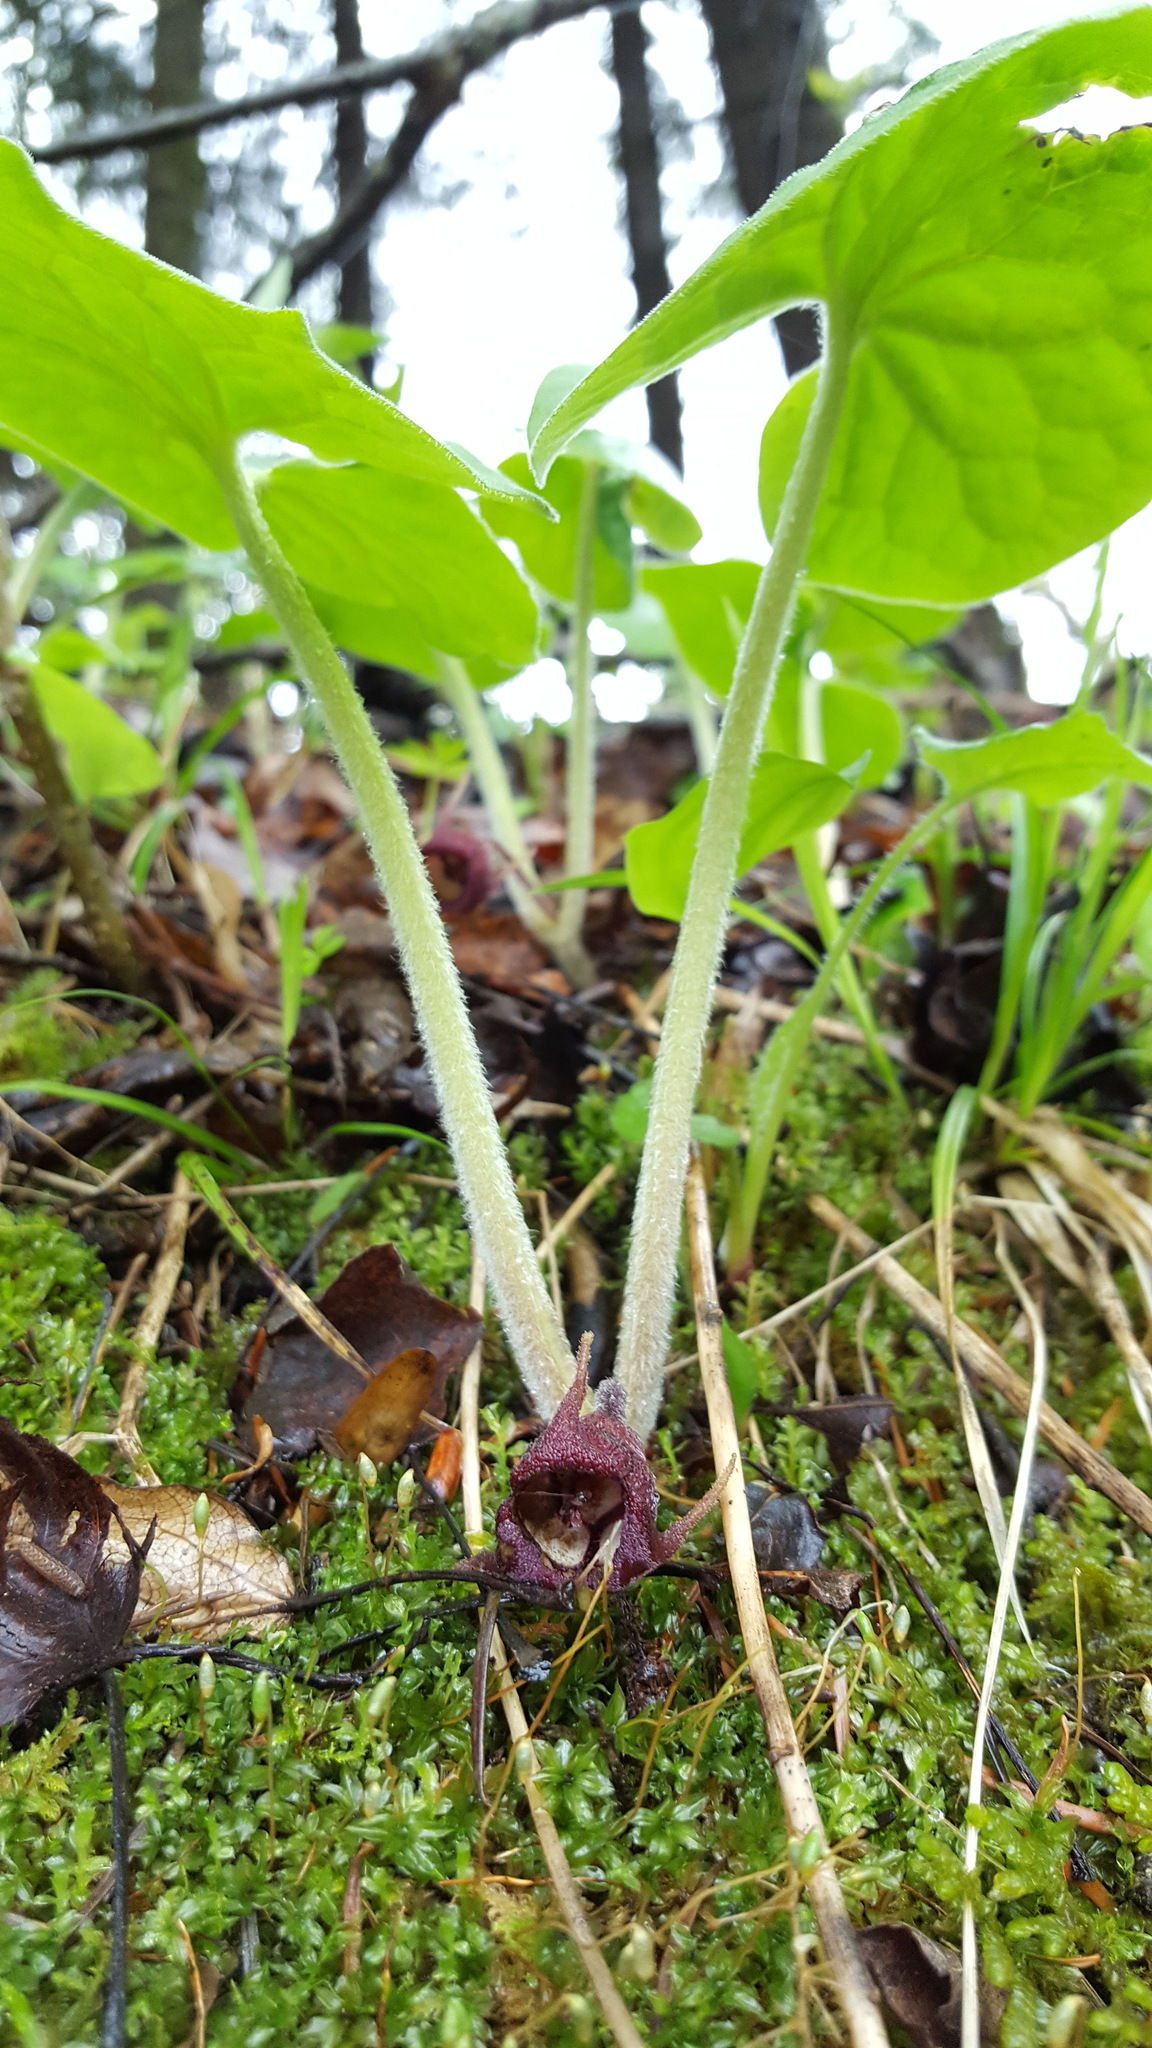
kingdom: Plantae
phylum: Tracheophyta
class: Magnoliopsida
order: Piperales
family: Aristolochiaceae
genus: Asarum
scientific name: Asarum canadense
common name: Wild ginger
